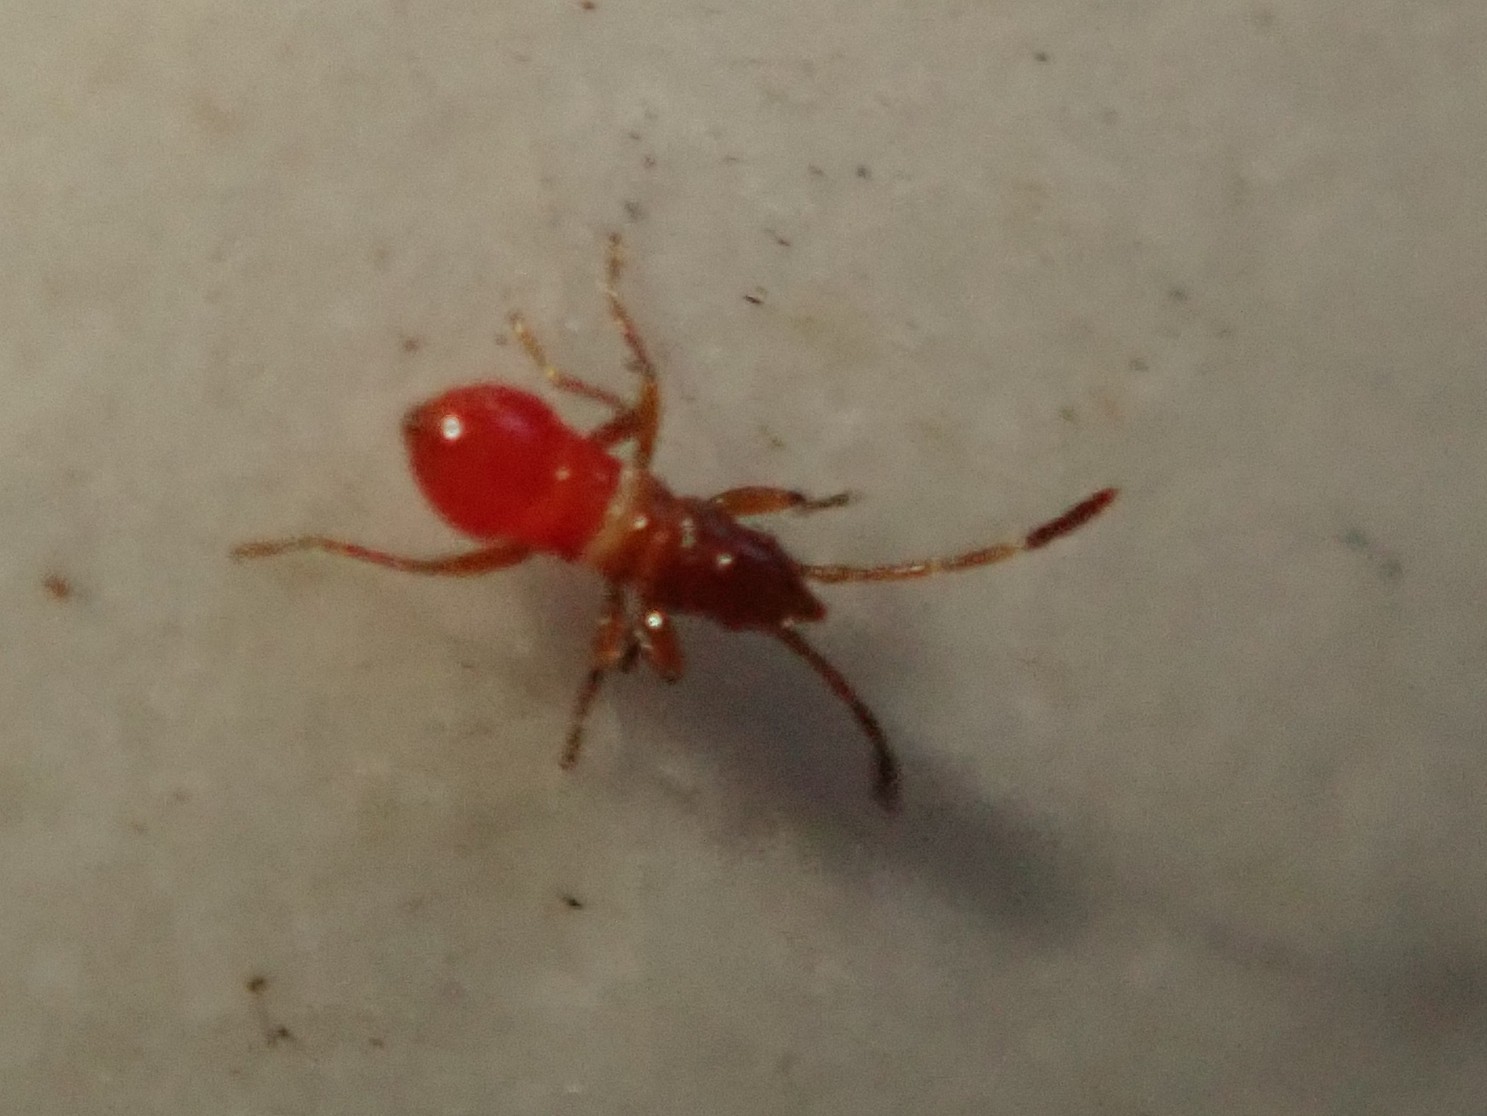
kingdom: Animalia
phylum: Arthropoda
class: Insecta
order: Hemiptera
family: Oxycarenidae
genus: Oxycarenus
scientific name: Oxycarenus lavaterae
